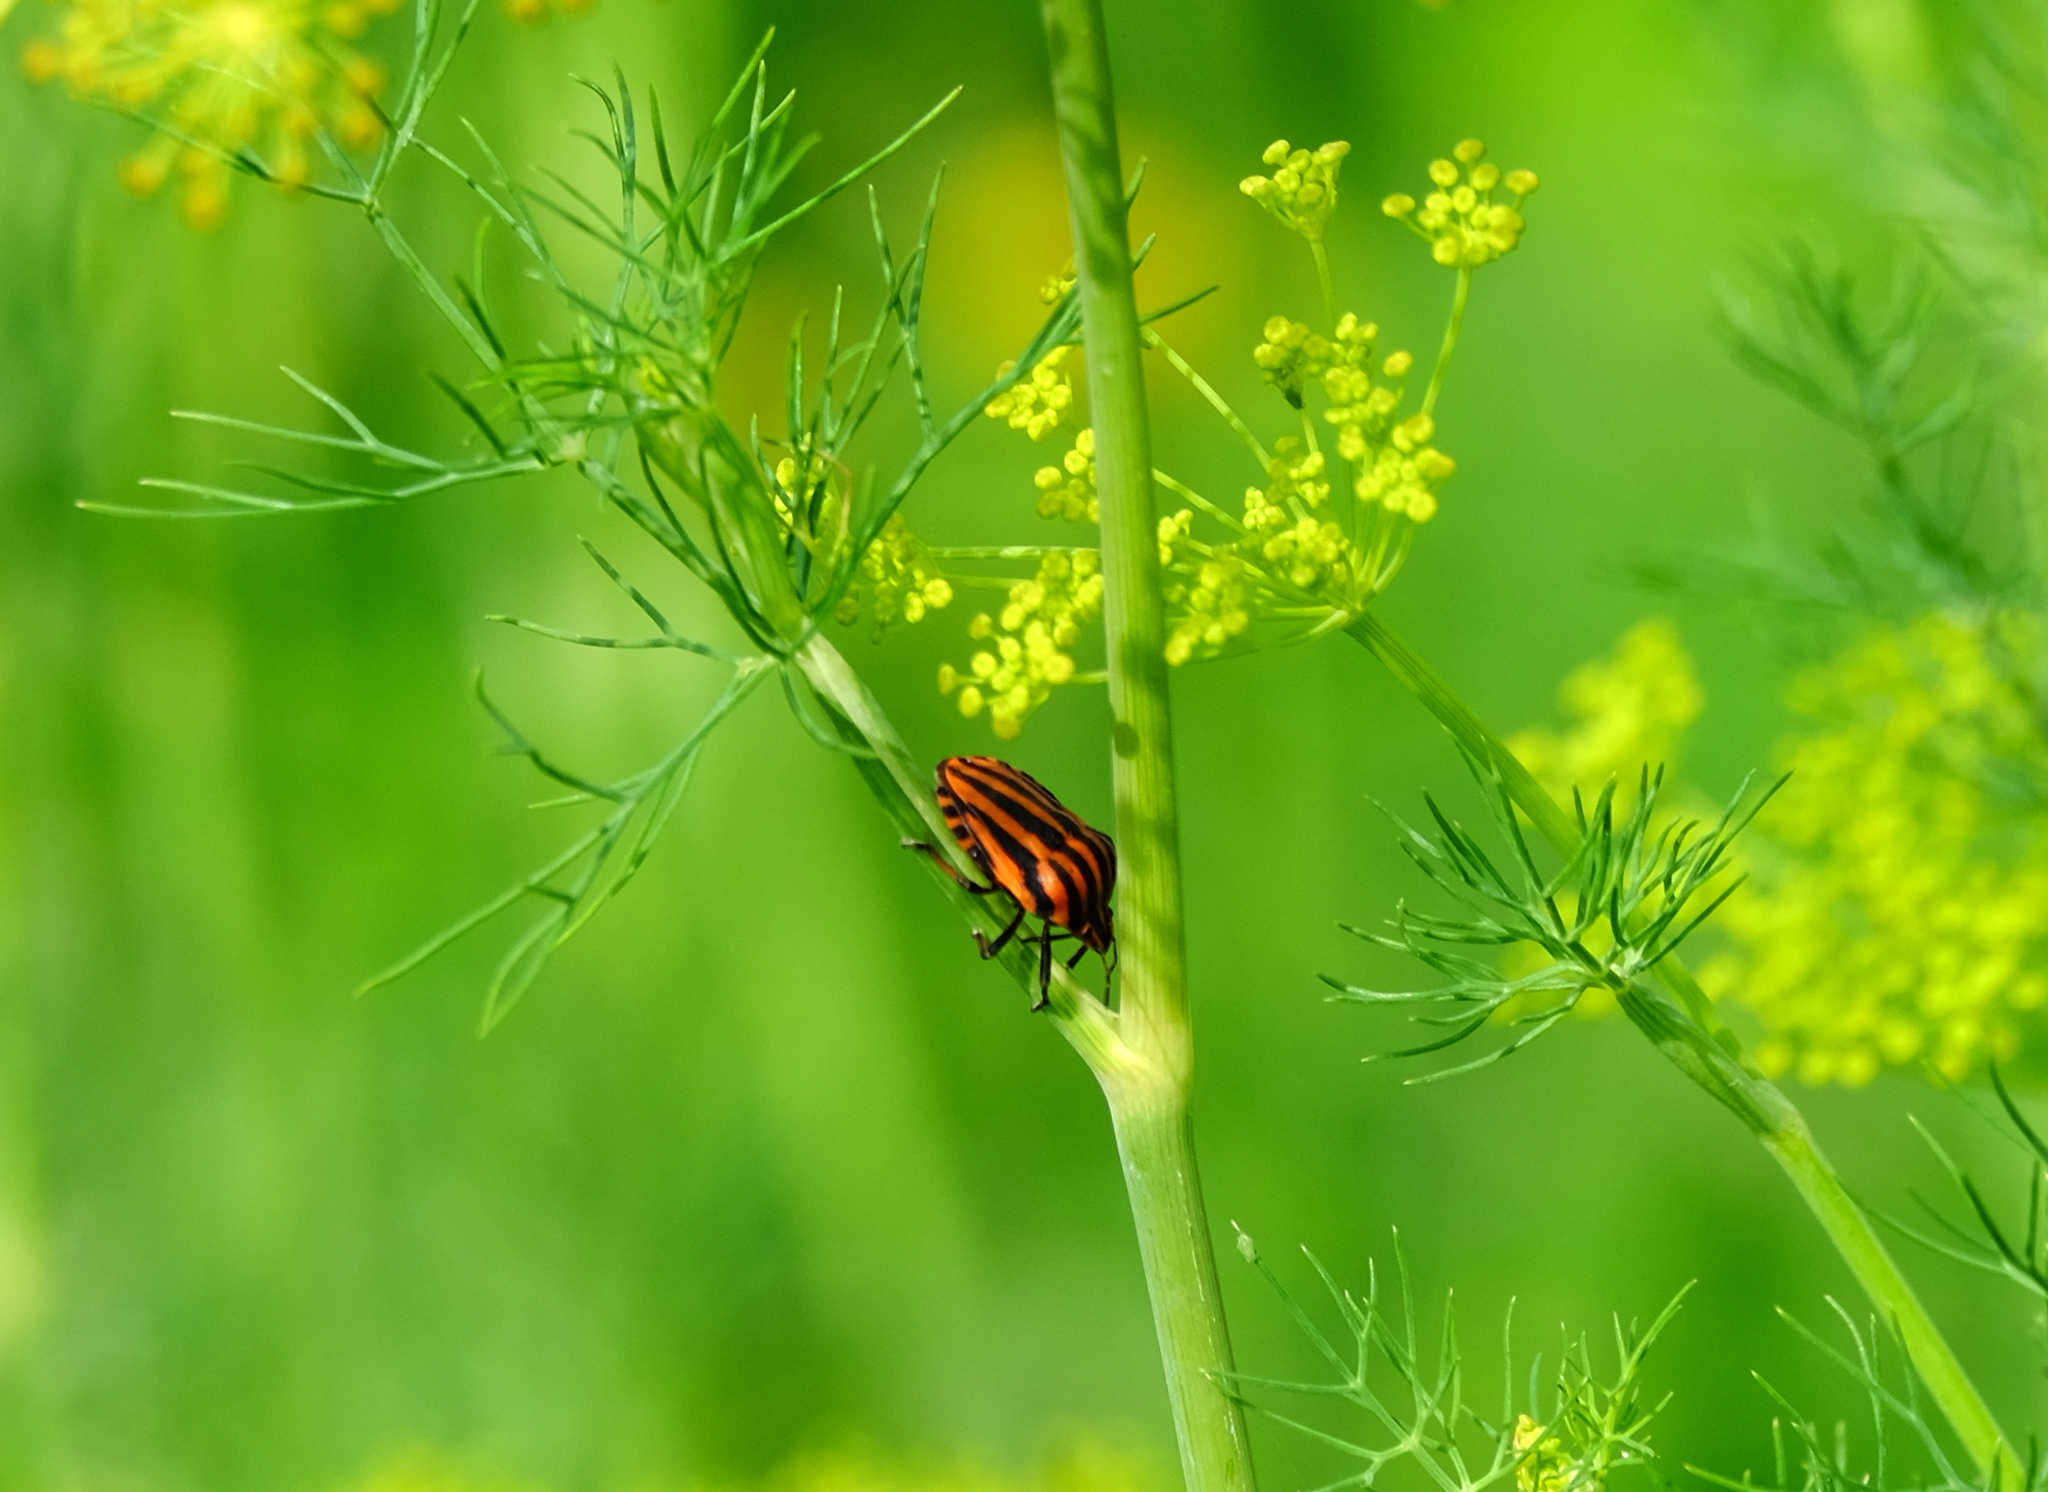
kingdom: Animalia
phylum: Arthropoda
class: Insecta
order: Hemiptera
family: Pentatomidae
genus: Graphosoma
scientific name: Graphosoma italicum
